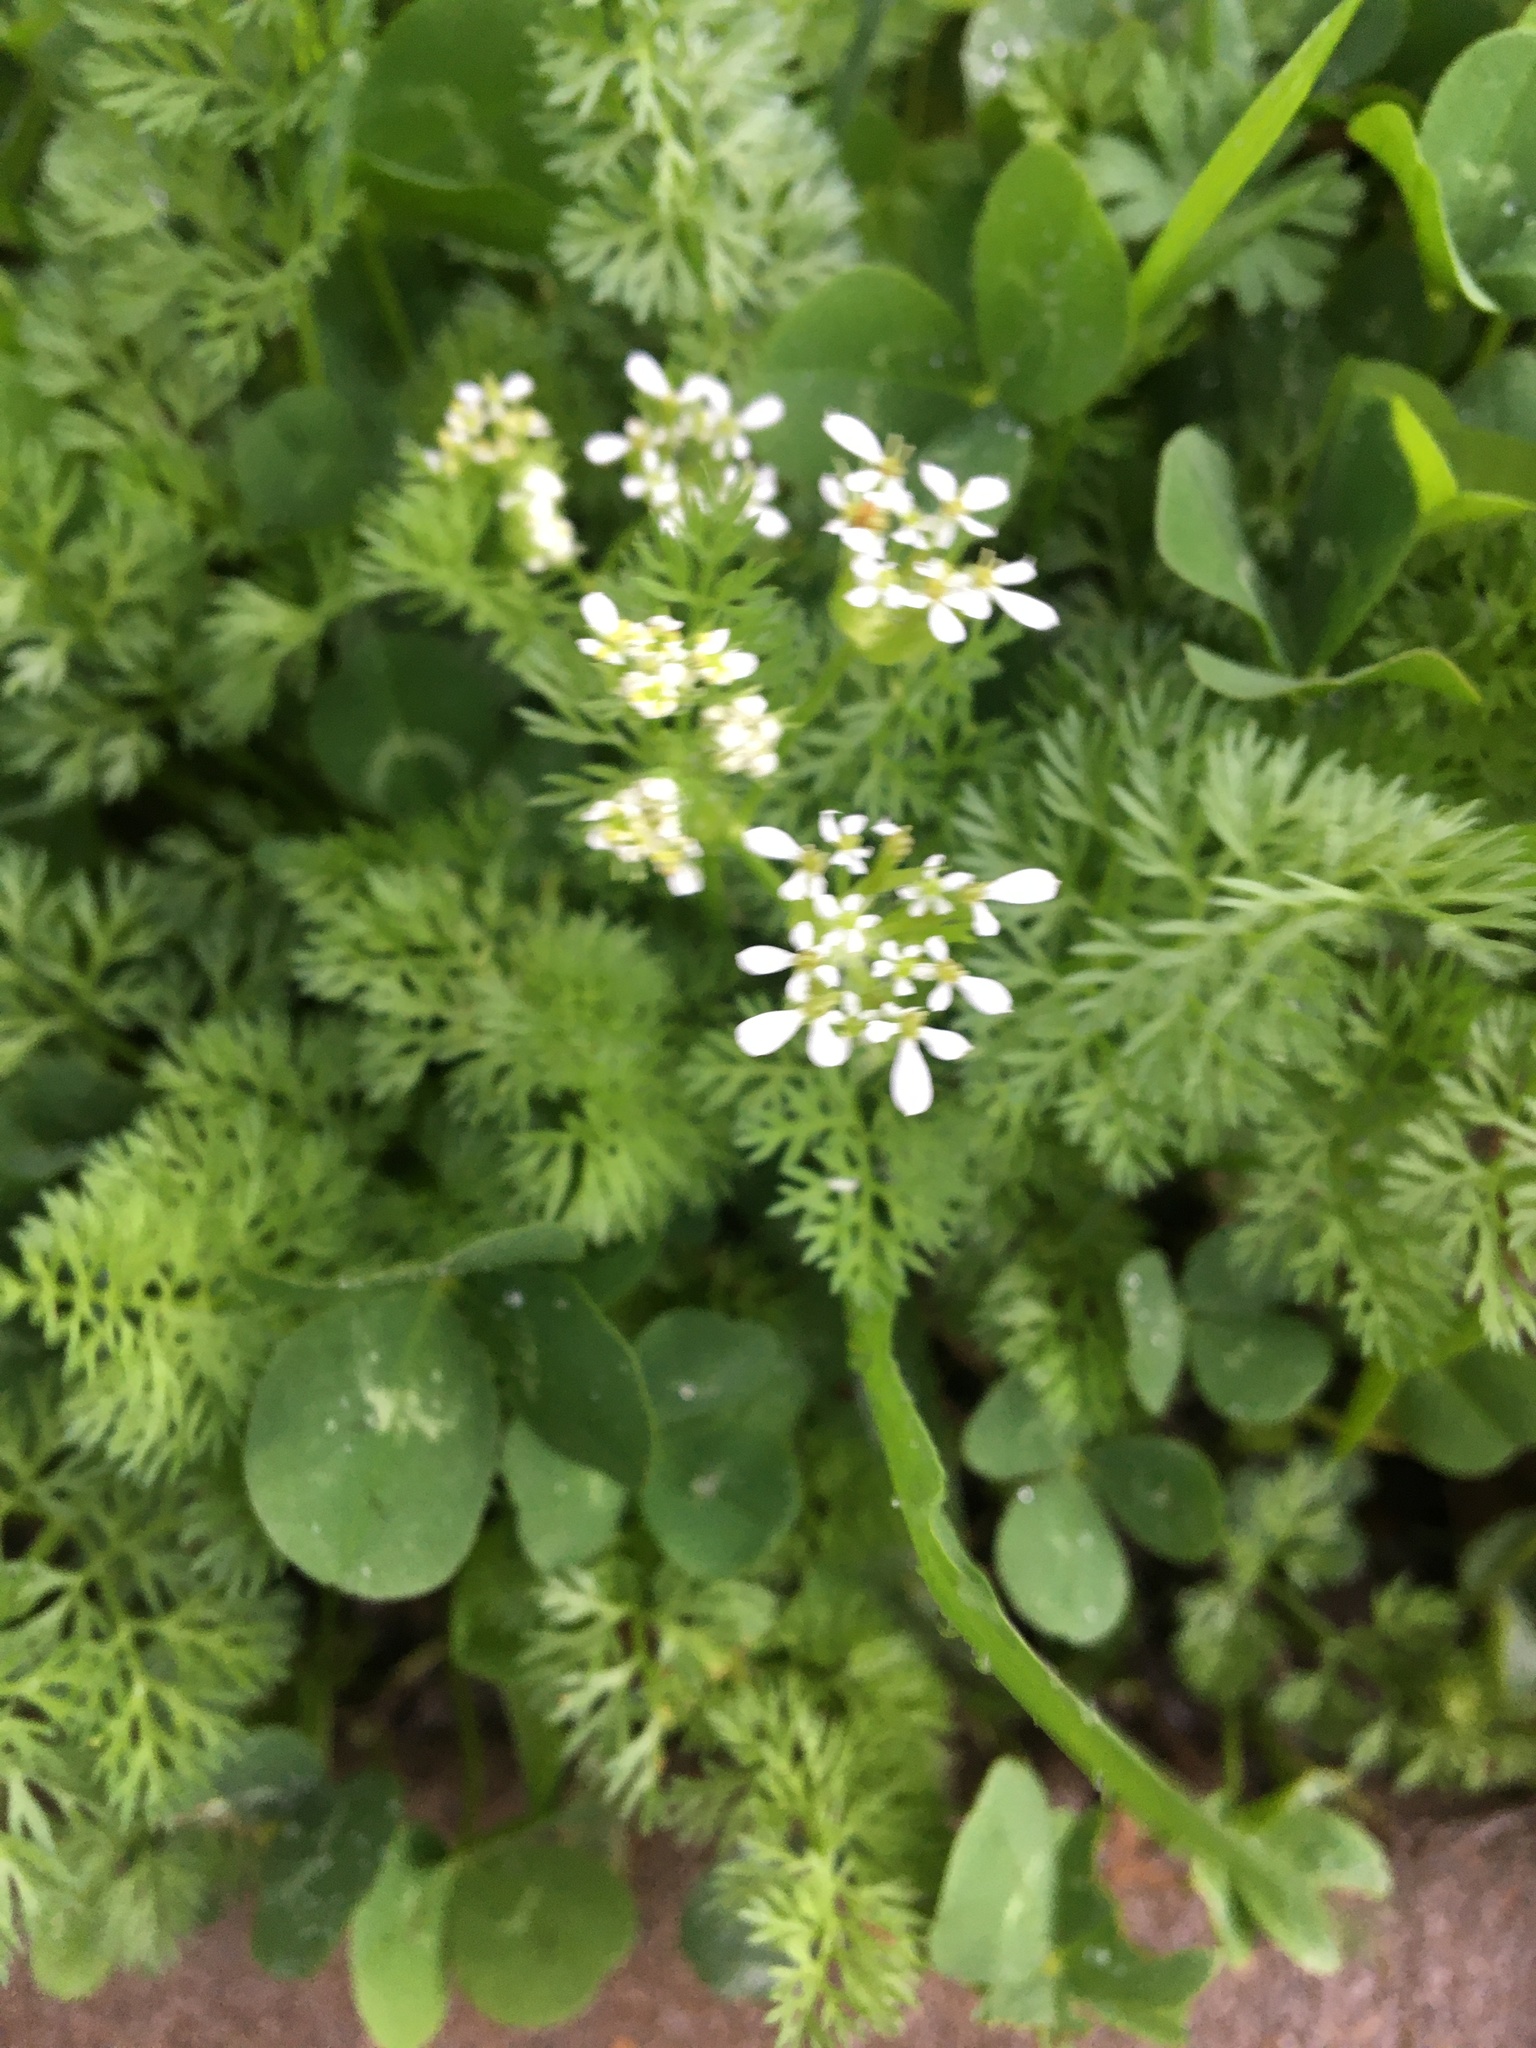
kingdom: Plantae
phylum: Tracheophyta
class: Magnoliopsida
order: Apiales
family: Apiaceae
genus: Scandix
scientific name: Scandix pecten-veneris
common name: Shepherd's-needle
